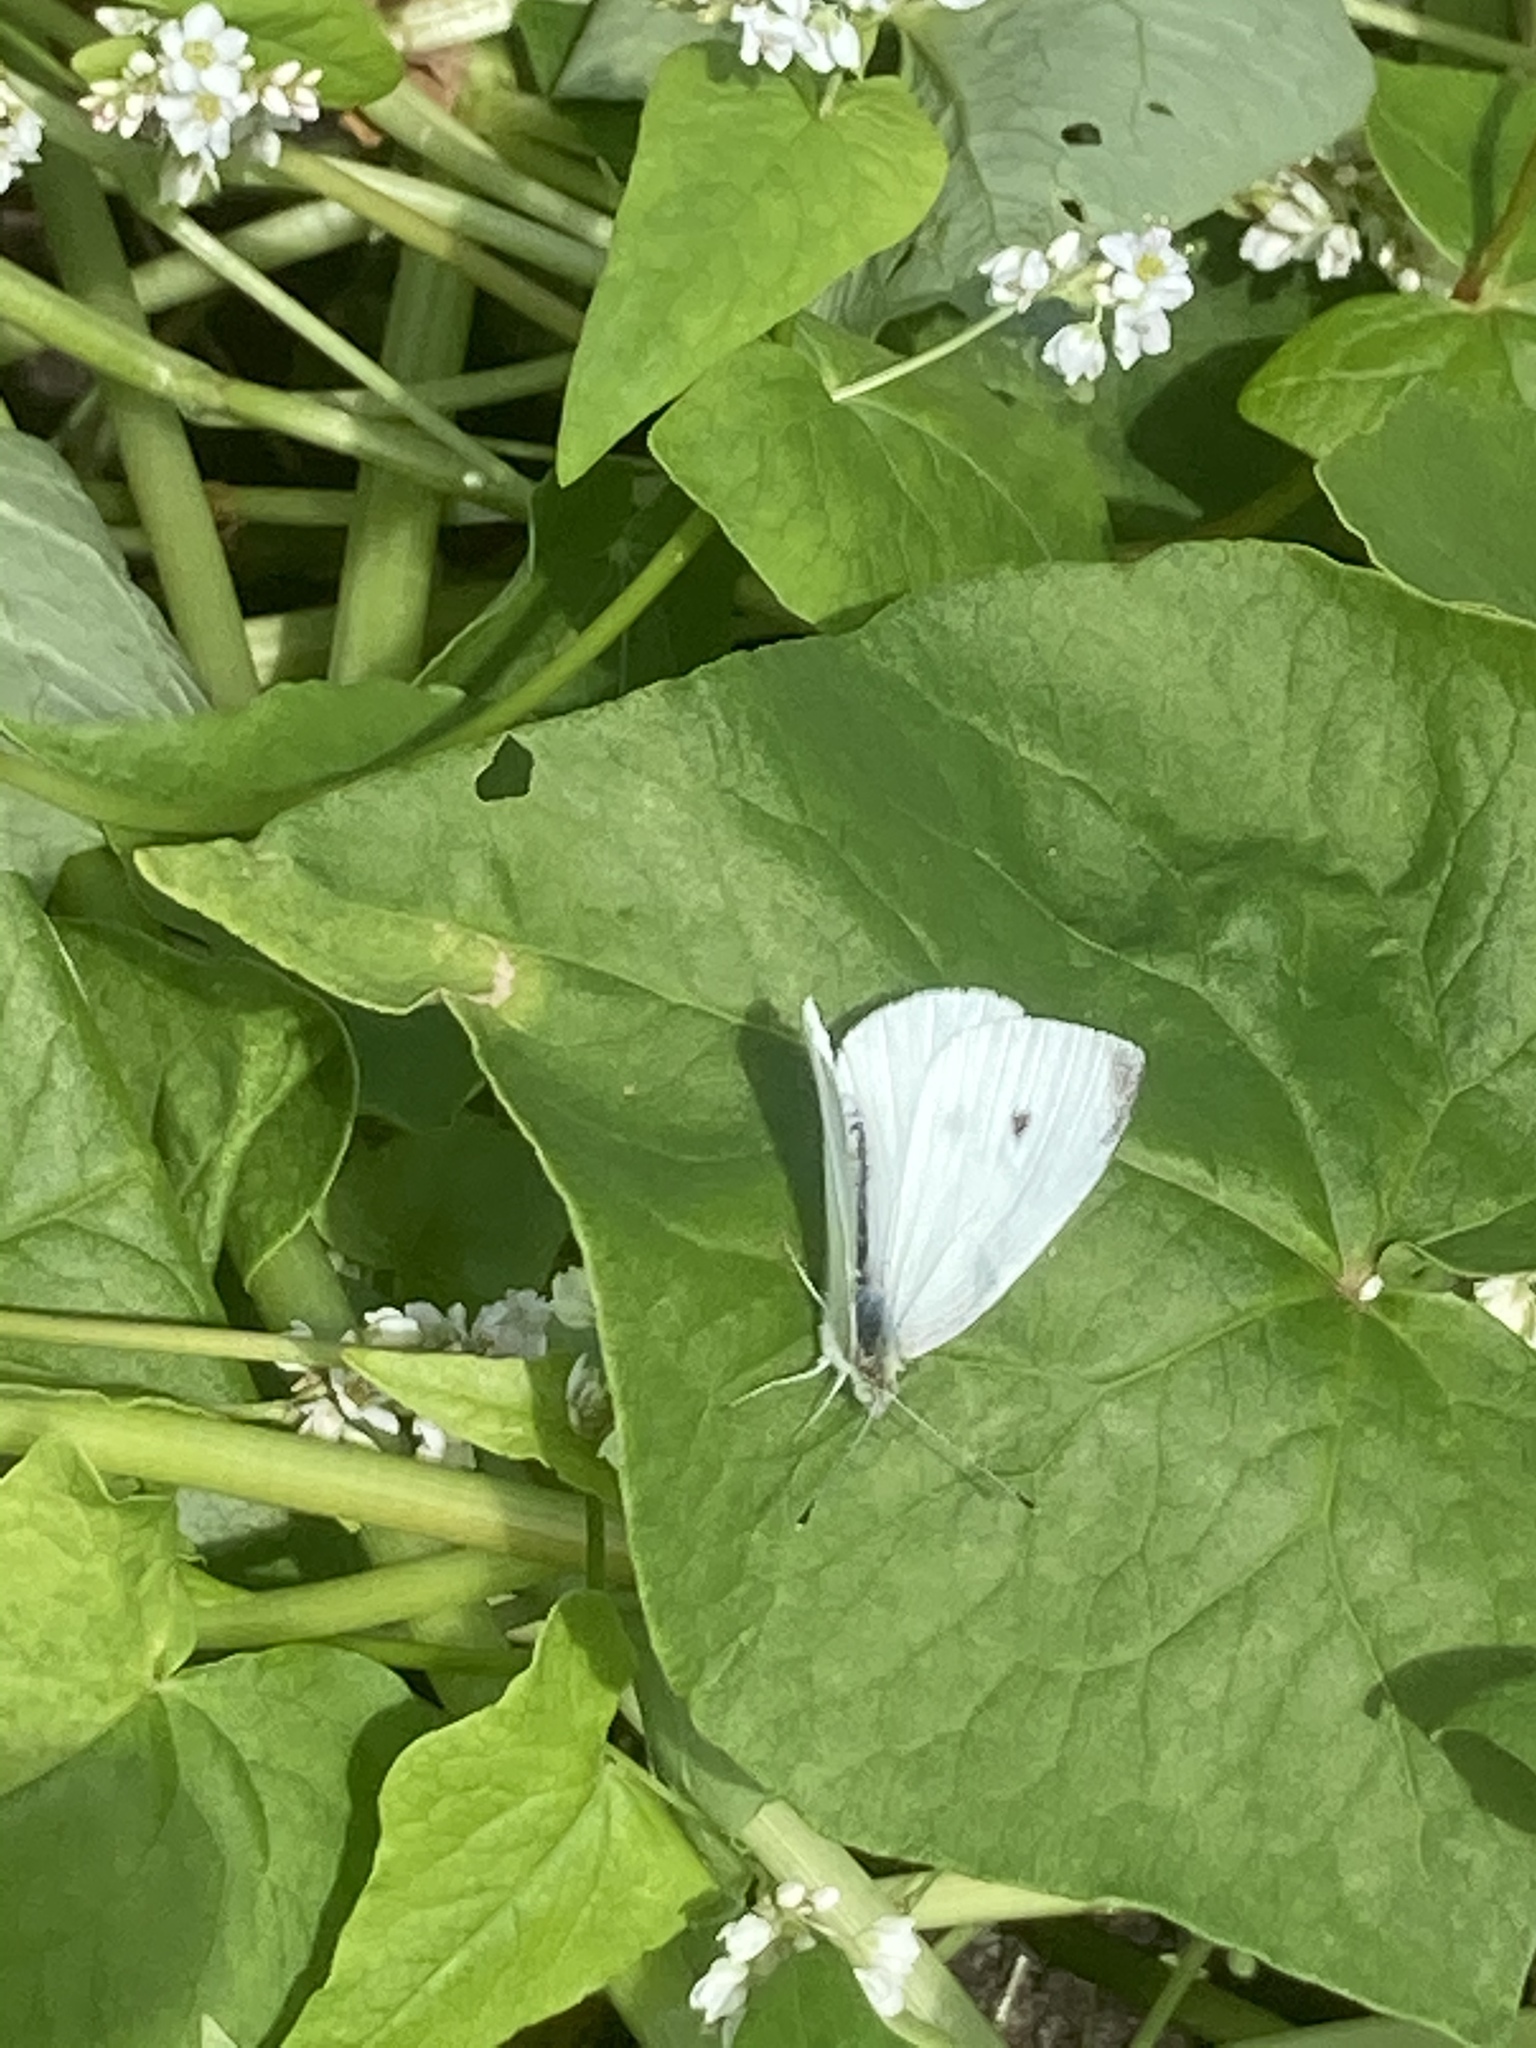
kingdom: Animalia
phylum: Arthropoda
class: Insecta
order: Lepidoptera
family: Pieridae
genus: Pieris
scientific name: Pieris rapae
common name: Small white
